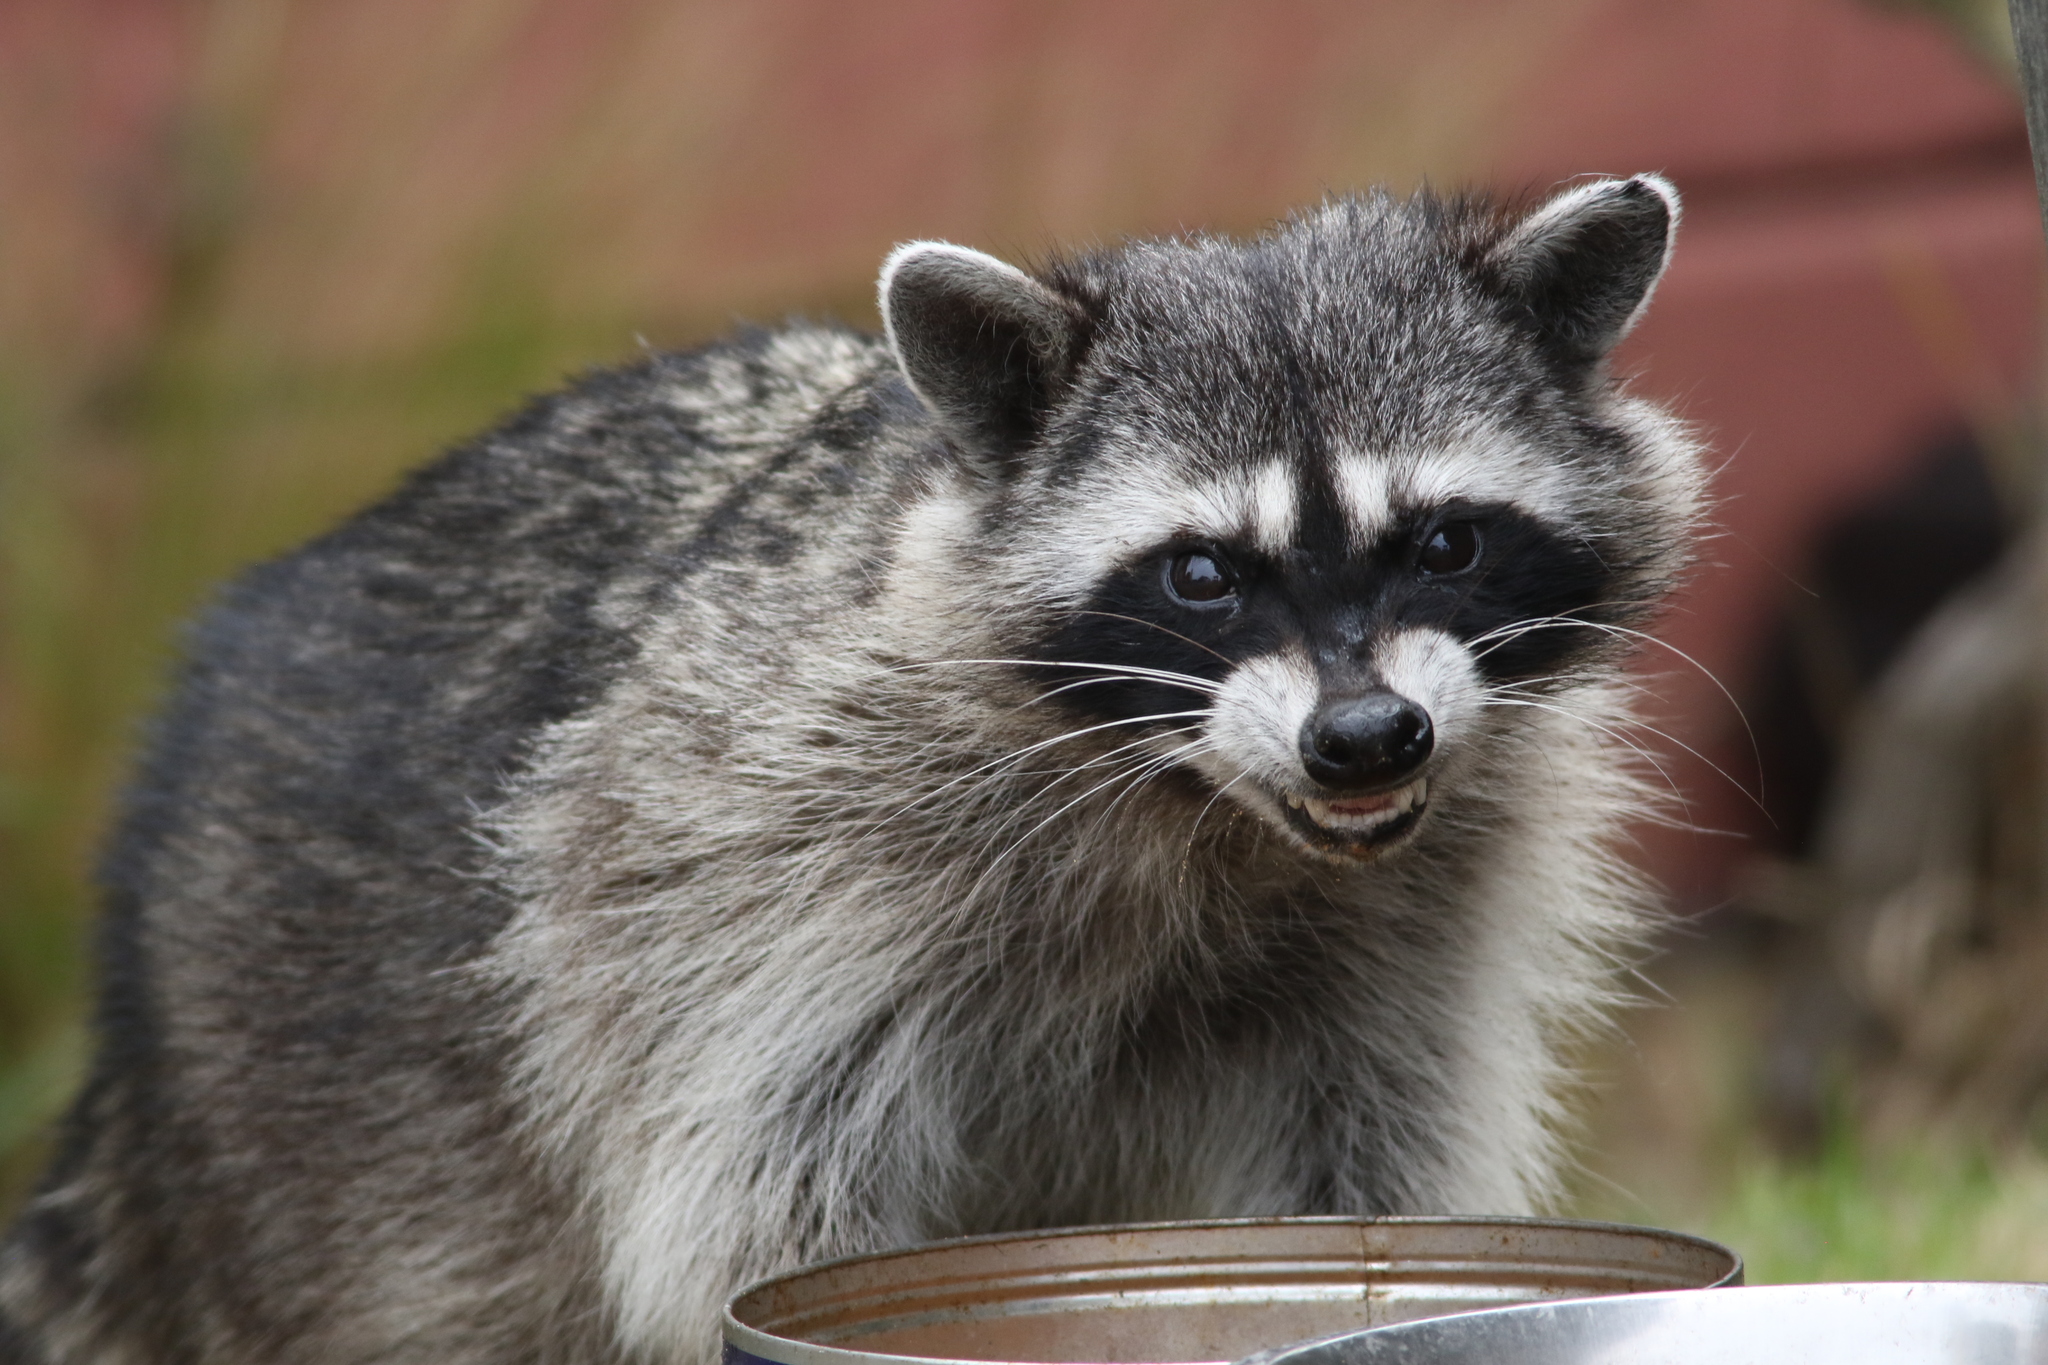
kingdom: Animalia
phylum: Chordata
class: Mammalia
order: Carnivora
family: Procyonidae
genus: Procyon
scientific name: Procyon lotor
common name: Raccoon
